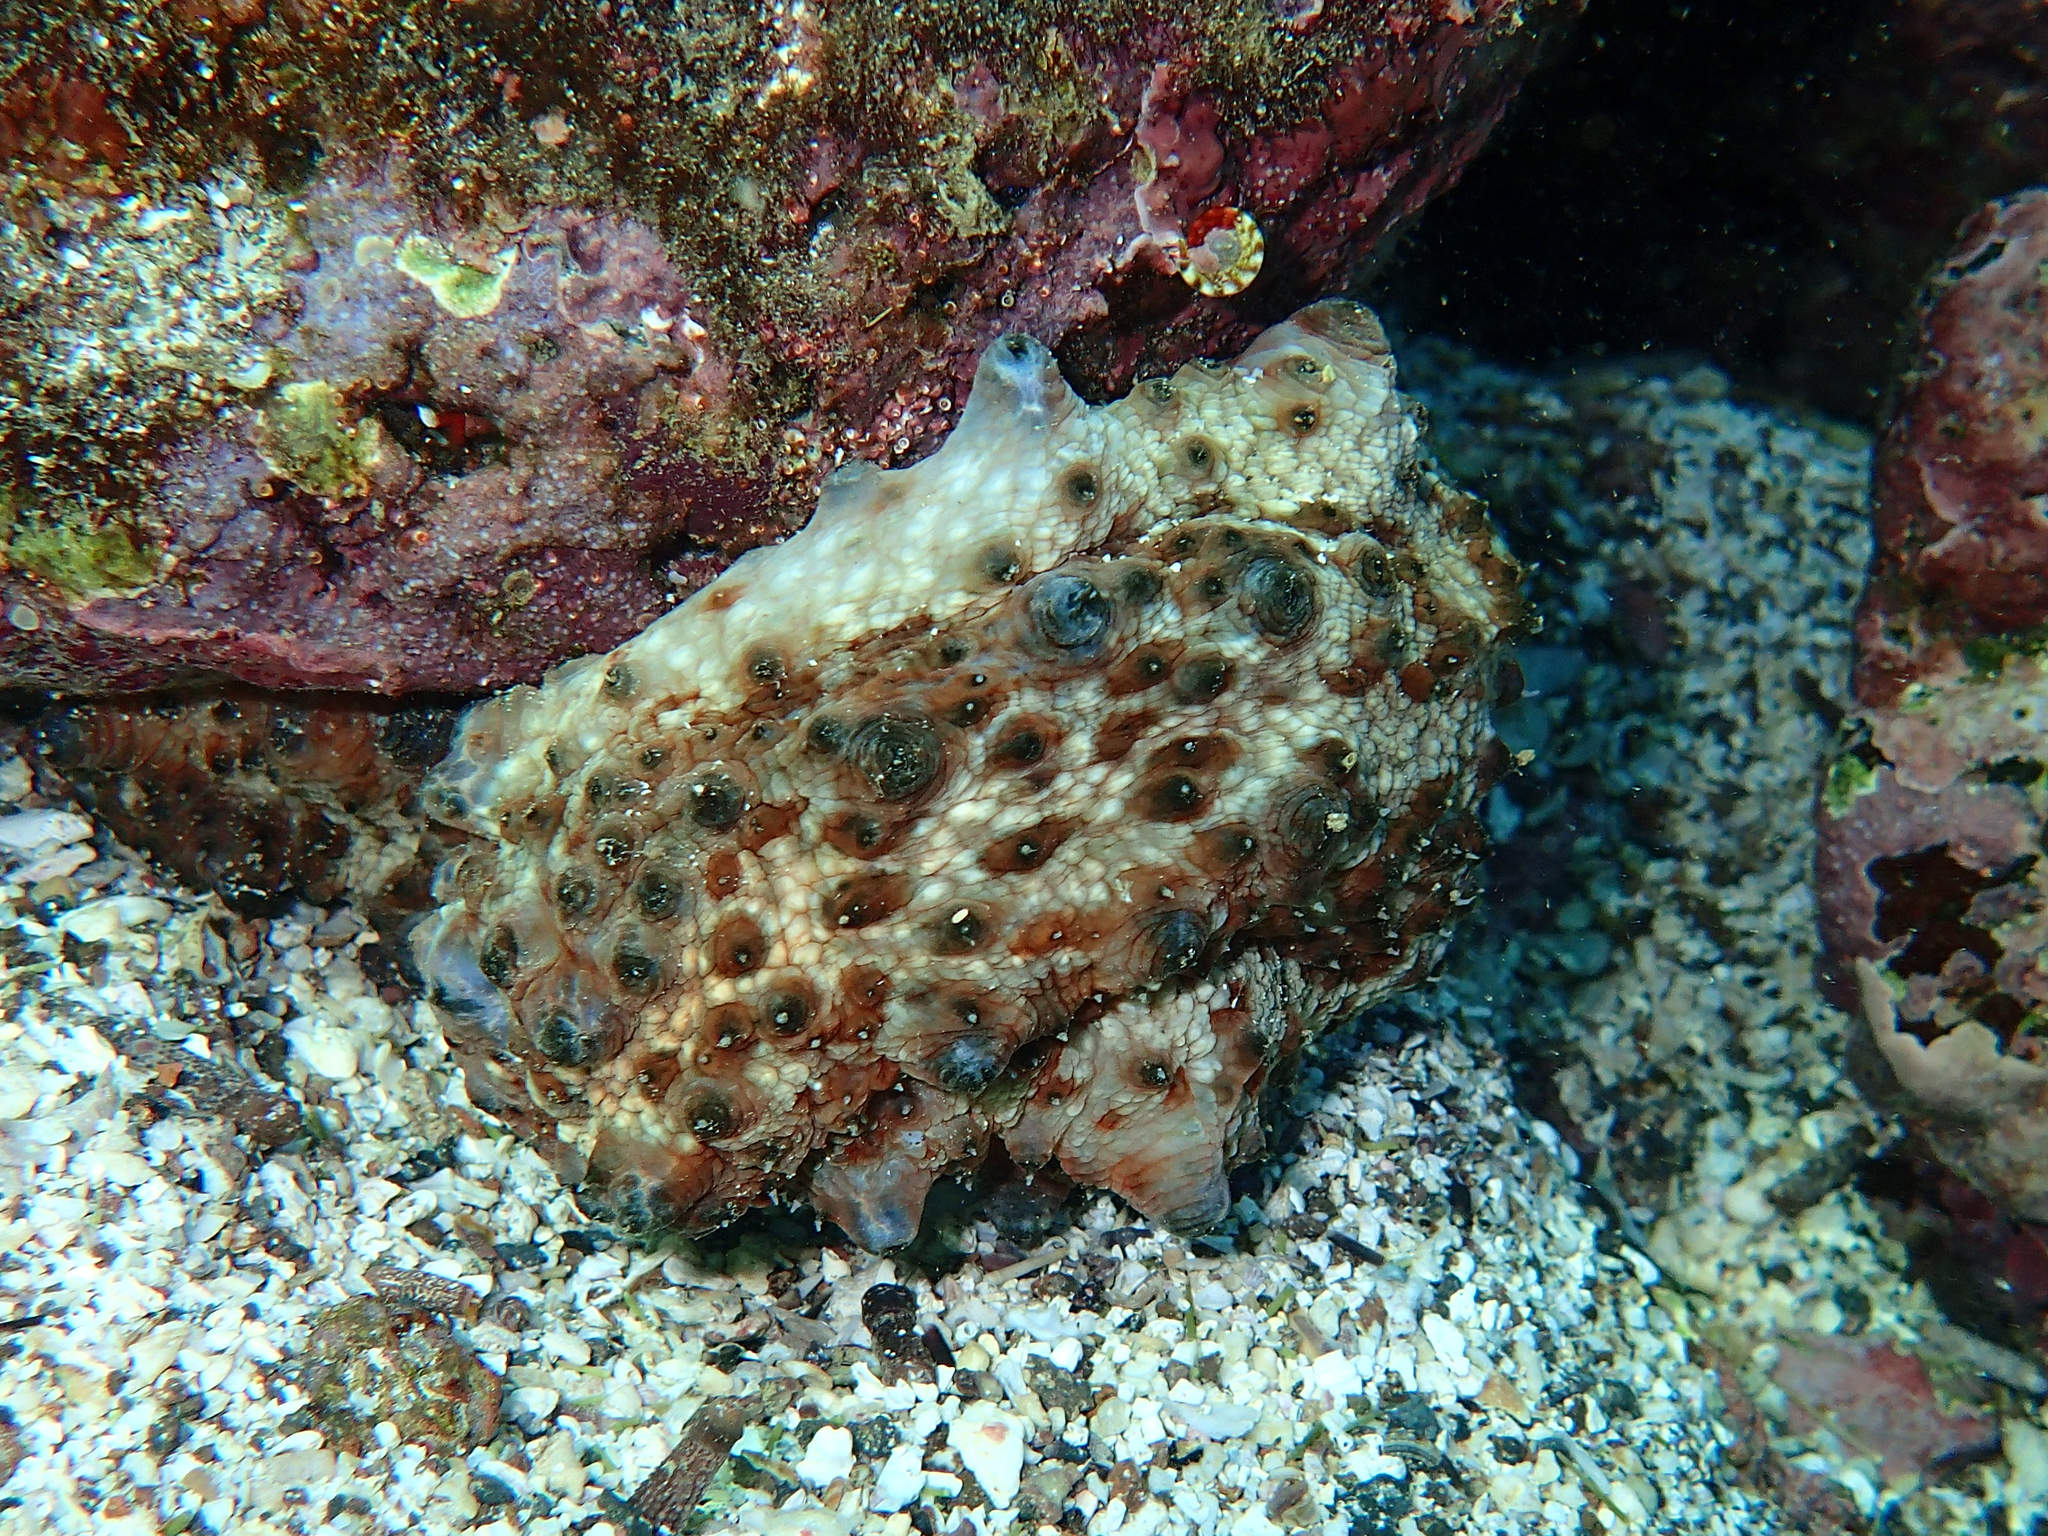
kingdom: Animalia
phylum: Mollusca
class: Cephalopoda
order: Octopoda
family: Octopodidae
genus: Octopus
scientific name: Octopus oculifer
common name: Reef octopus
